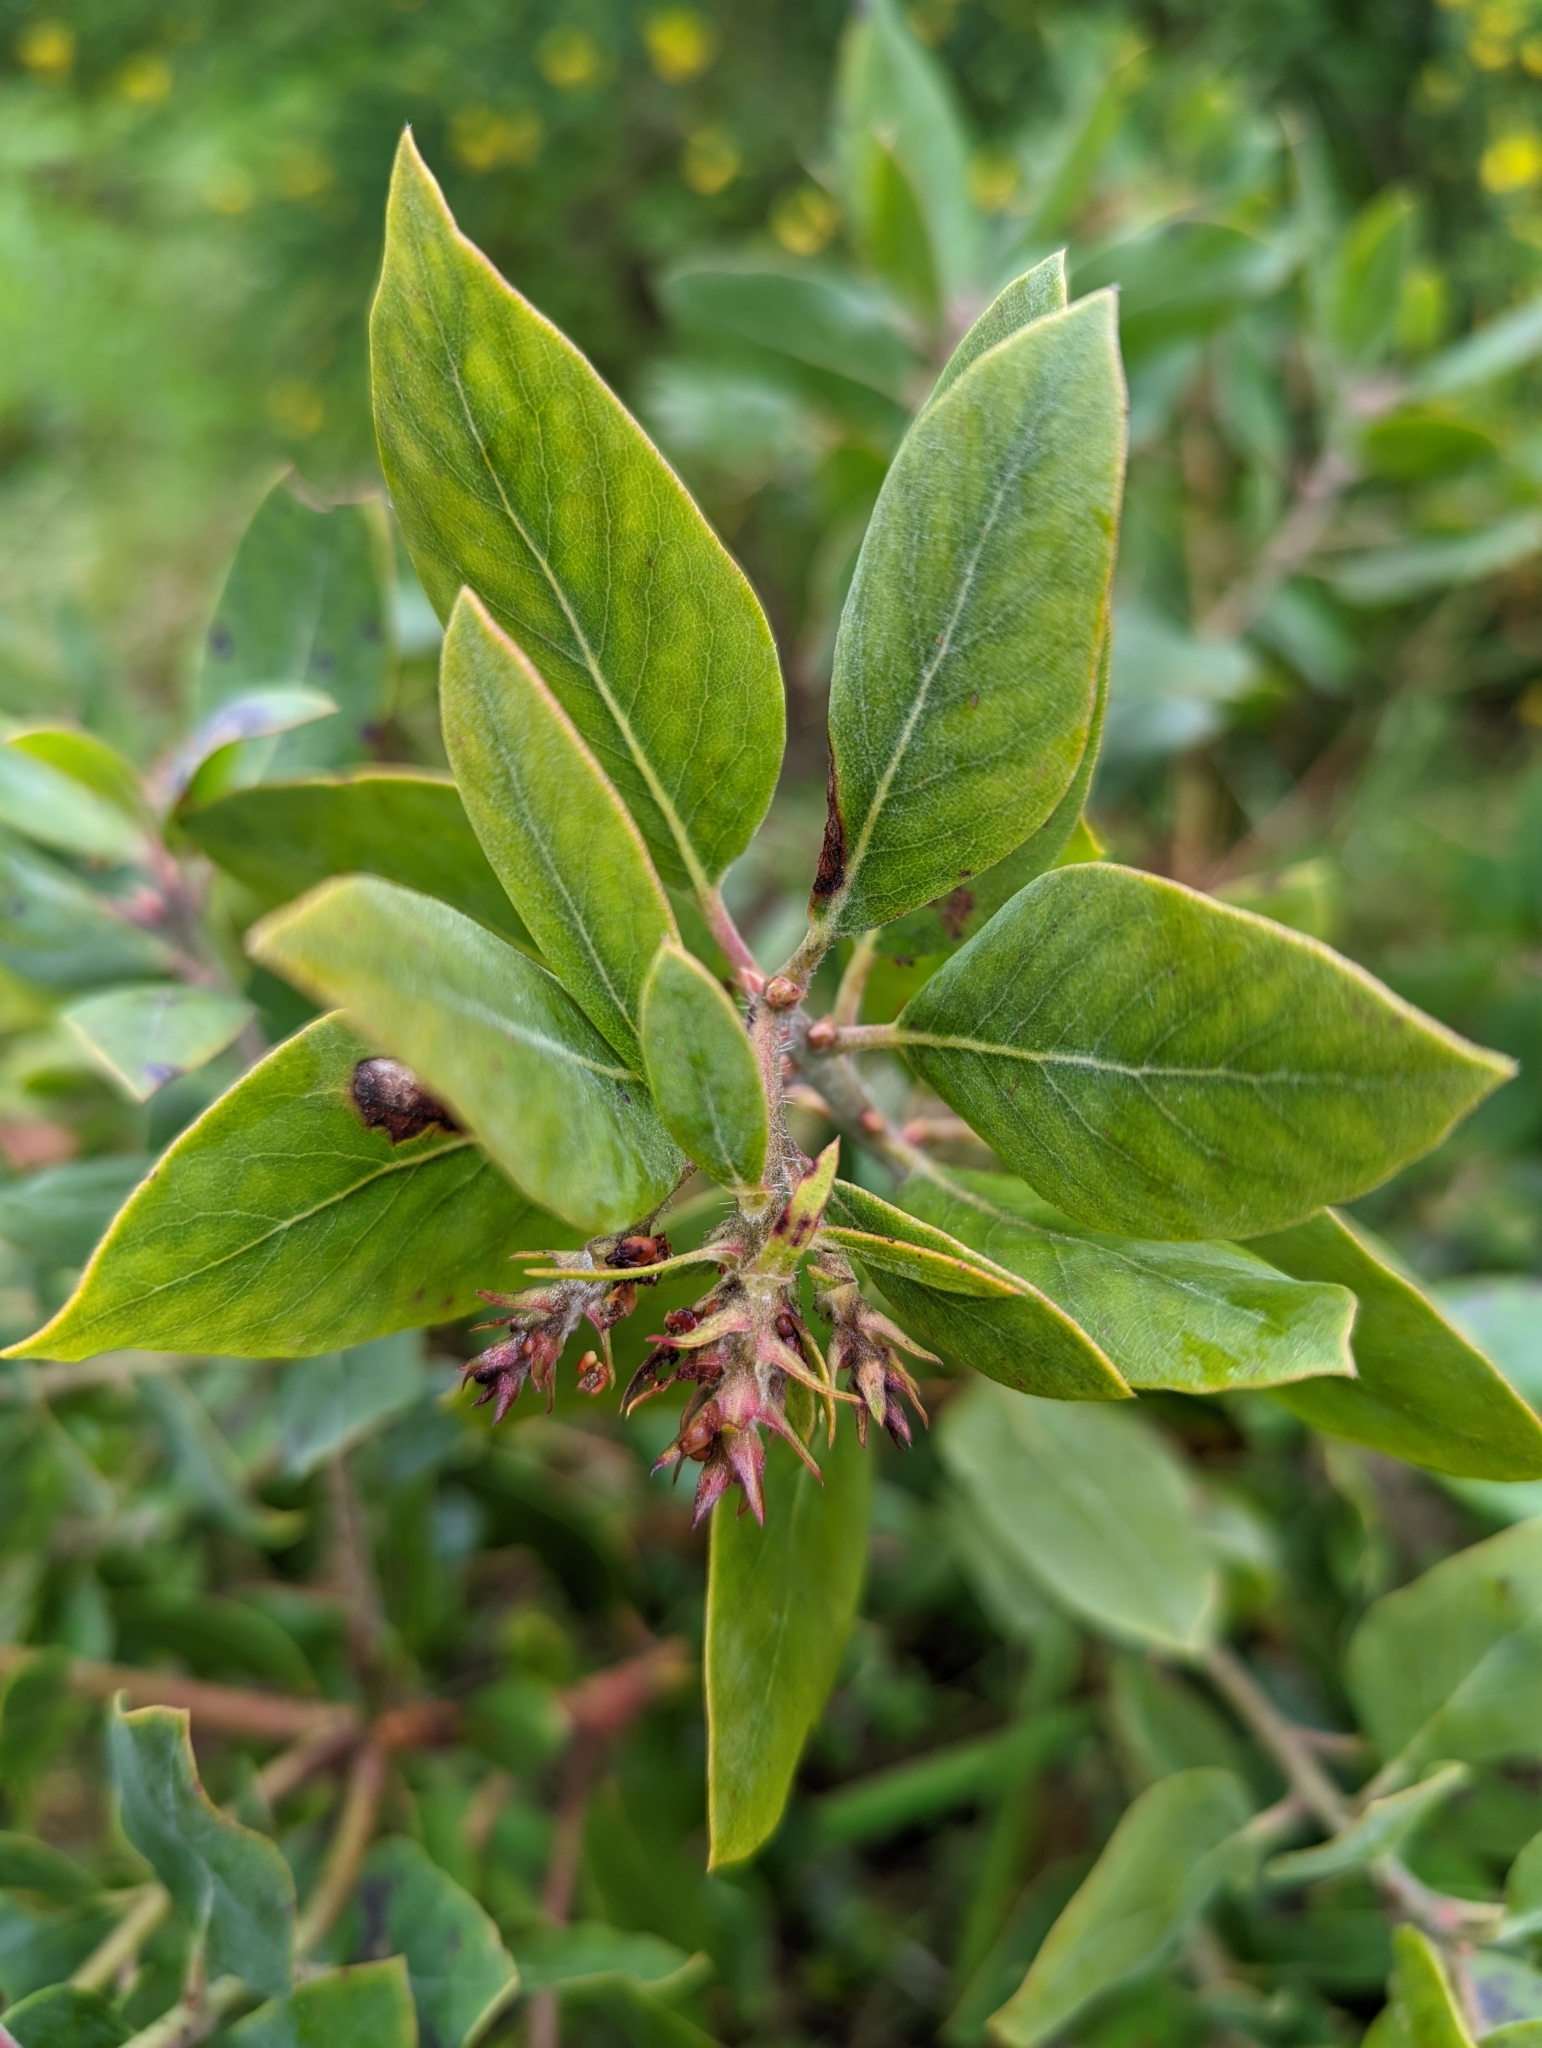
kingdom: Plantae
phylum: Tracheophyta
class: Magnoliopsida
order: Ericales
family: Ericaceae
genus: Arctostaphylos
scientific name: Arctostaphylos columbiana
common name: Bristly bearberry
